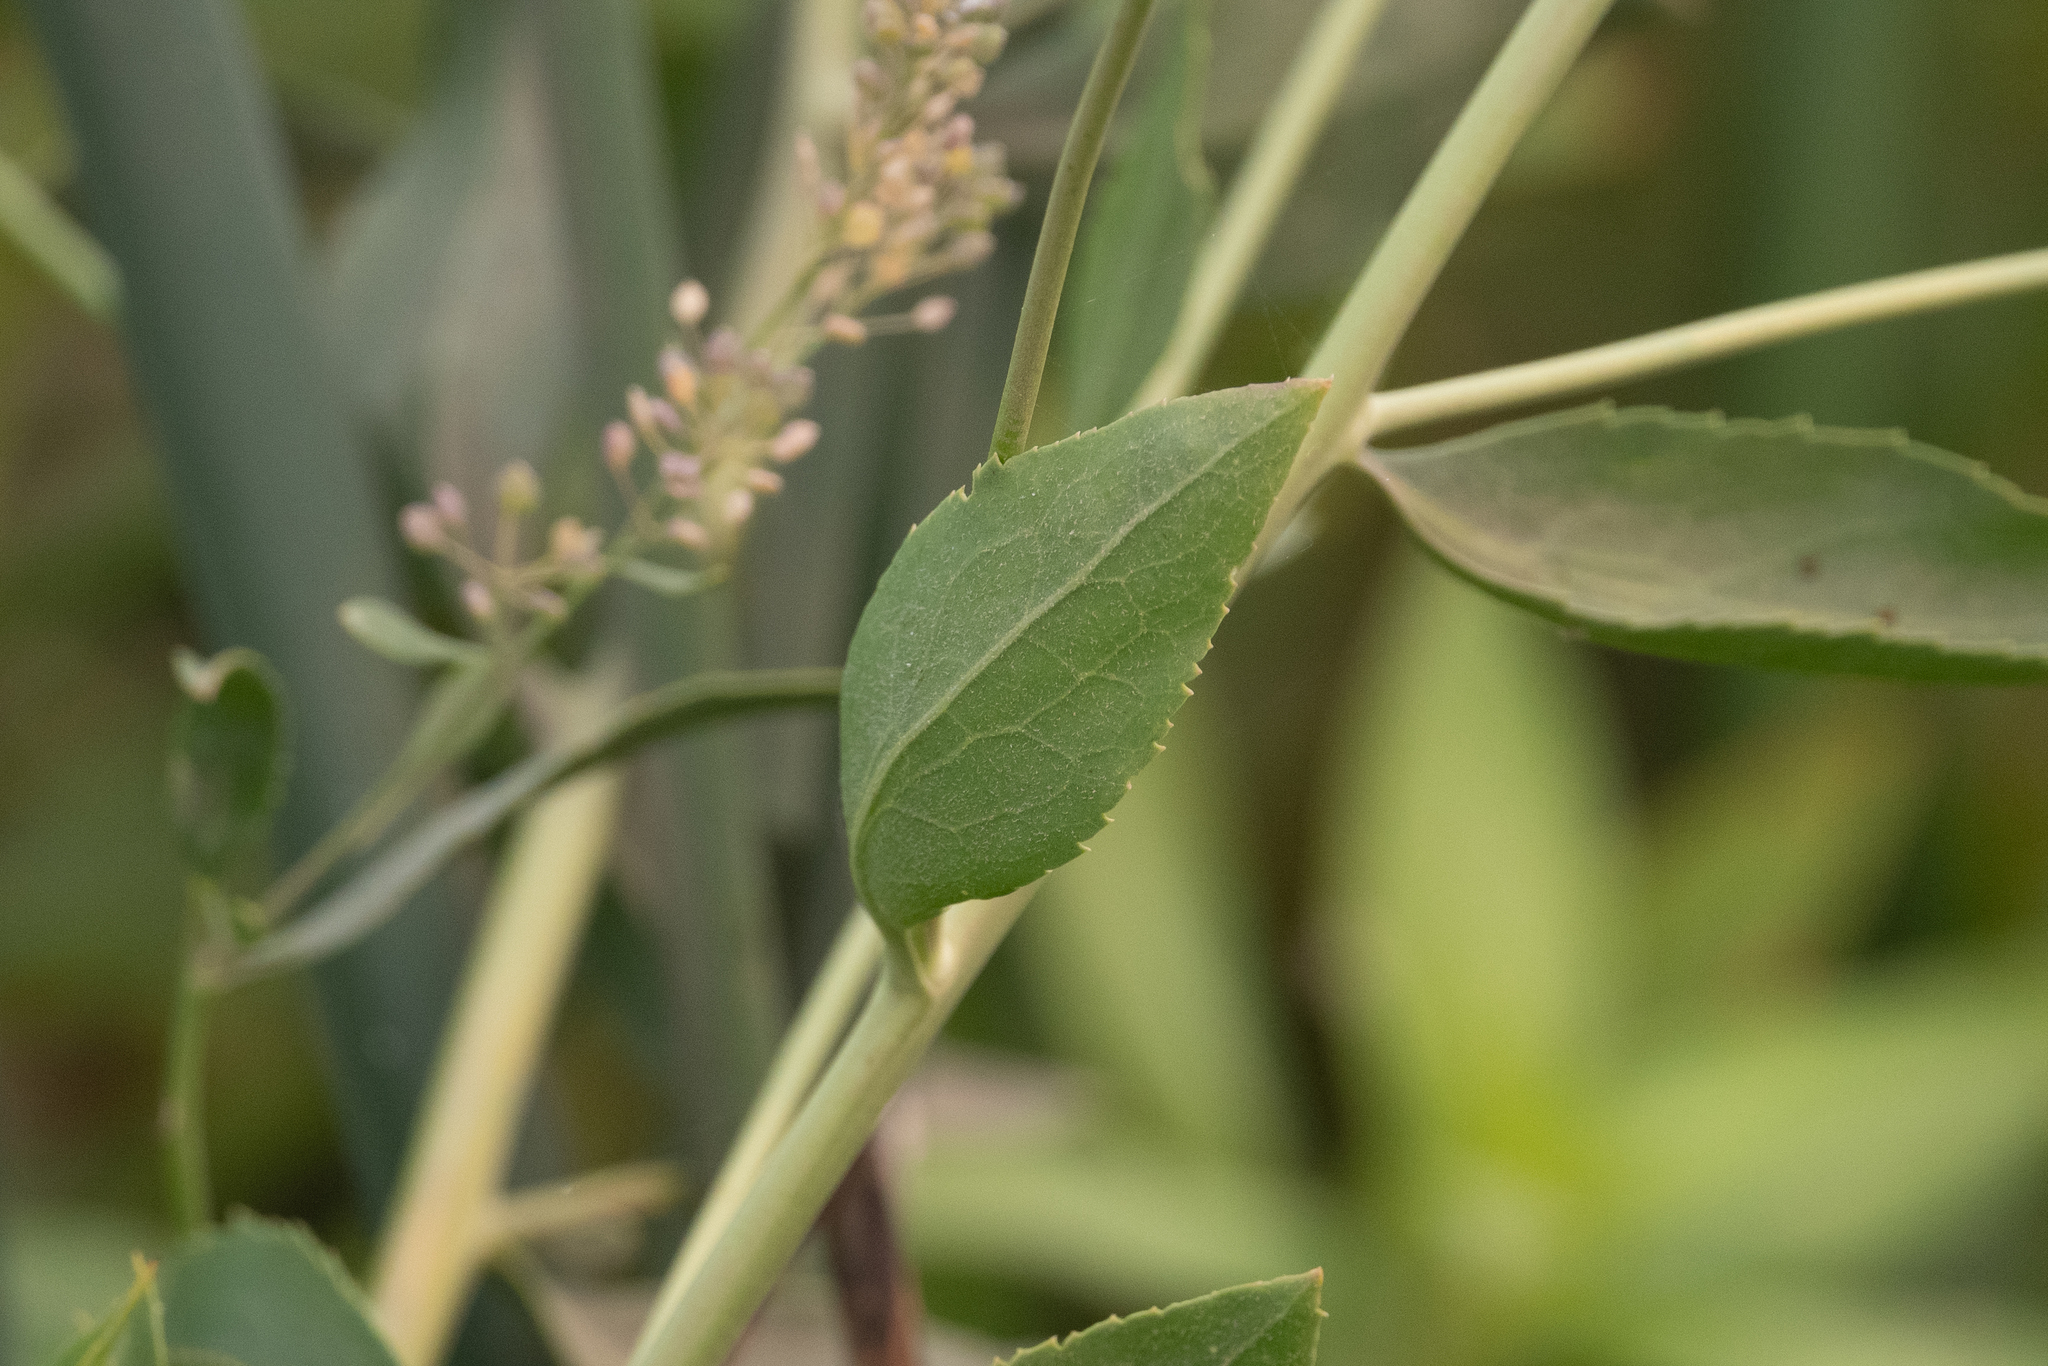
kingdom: Plantae
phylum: Tracheophyta
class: Magnoliopsida
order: Brassicales
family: Brassicaceae
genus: Lepidium
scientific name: Lepidium latifolium
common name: Dittander
